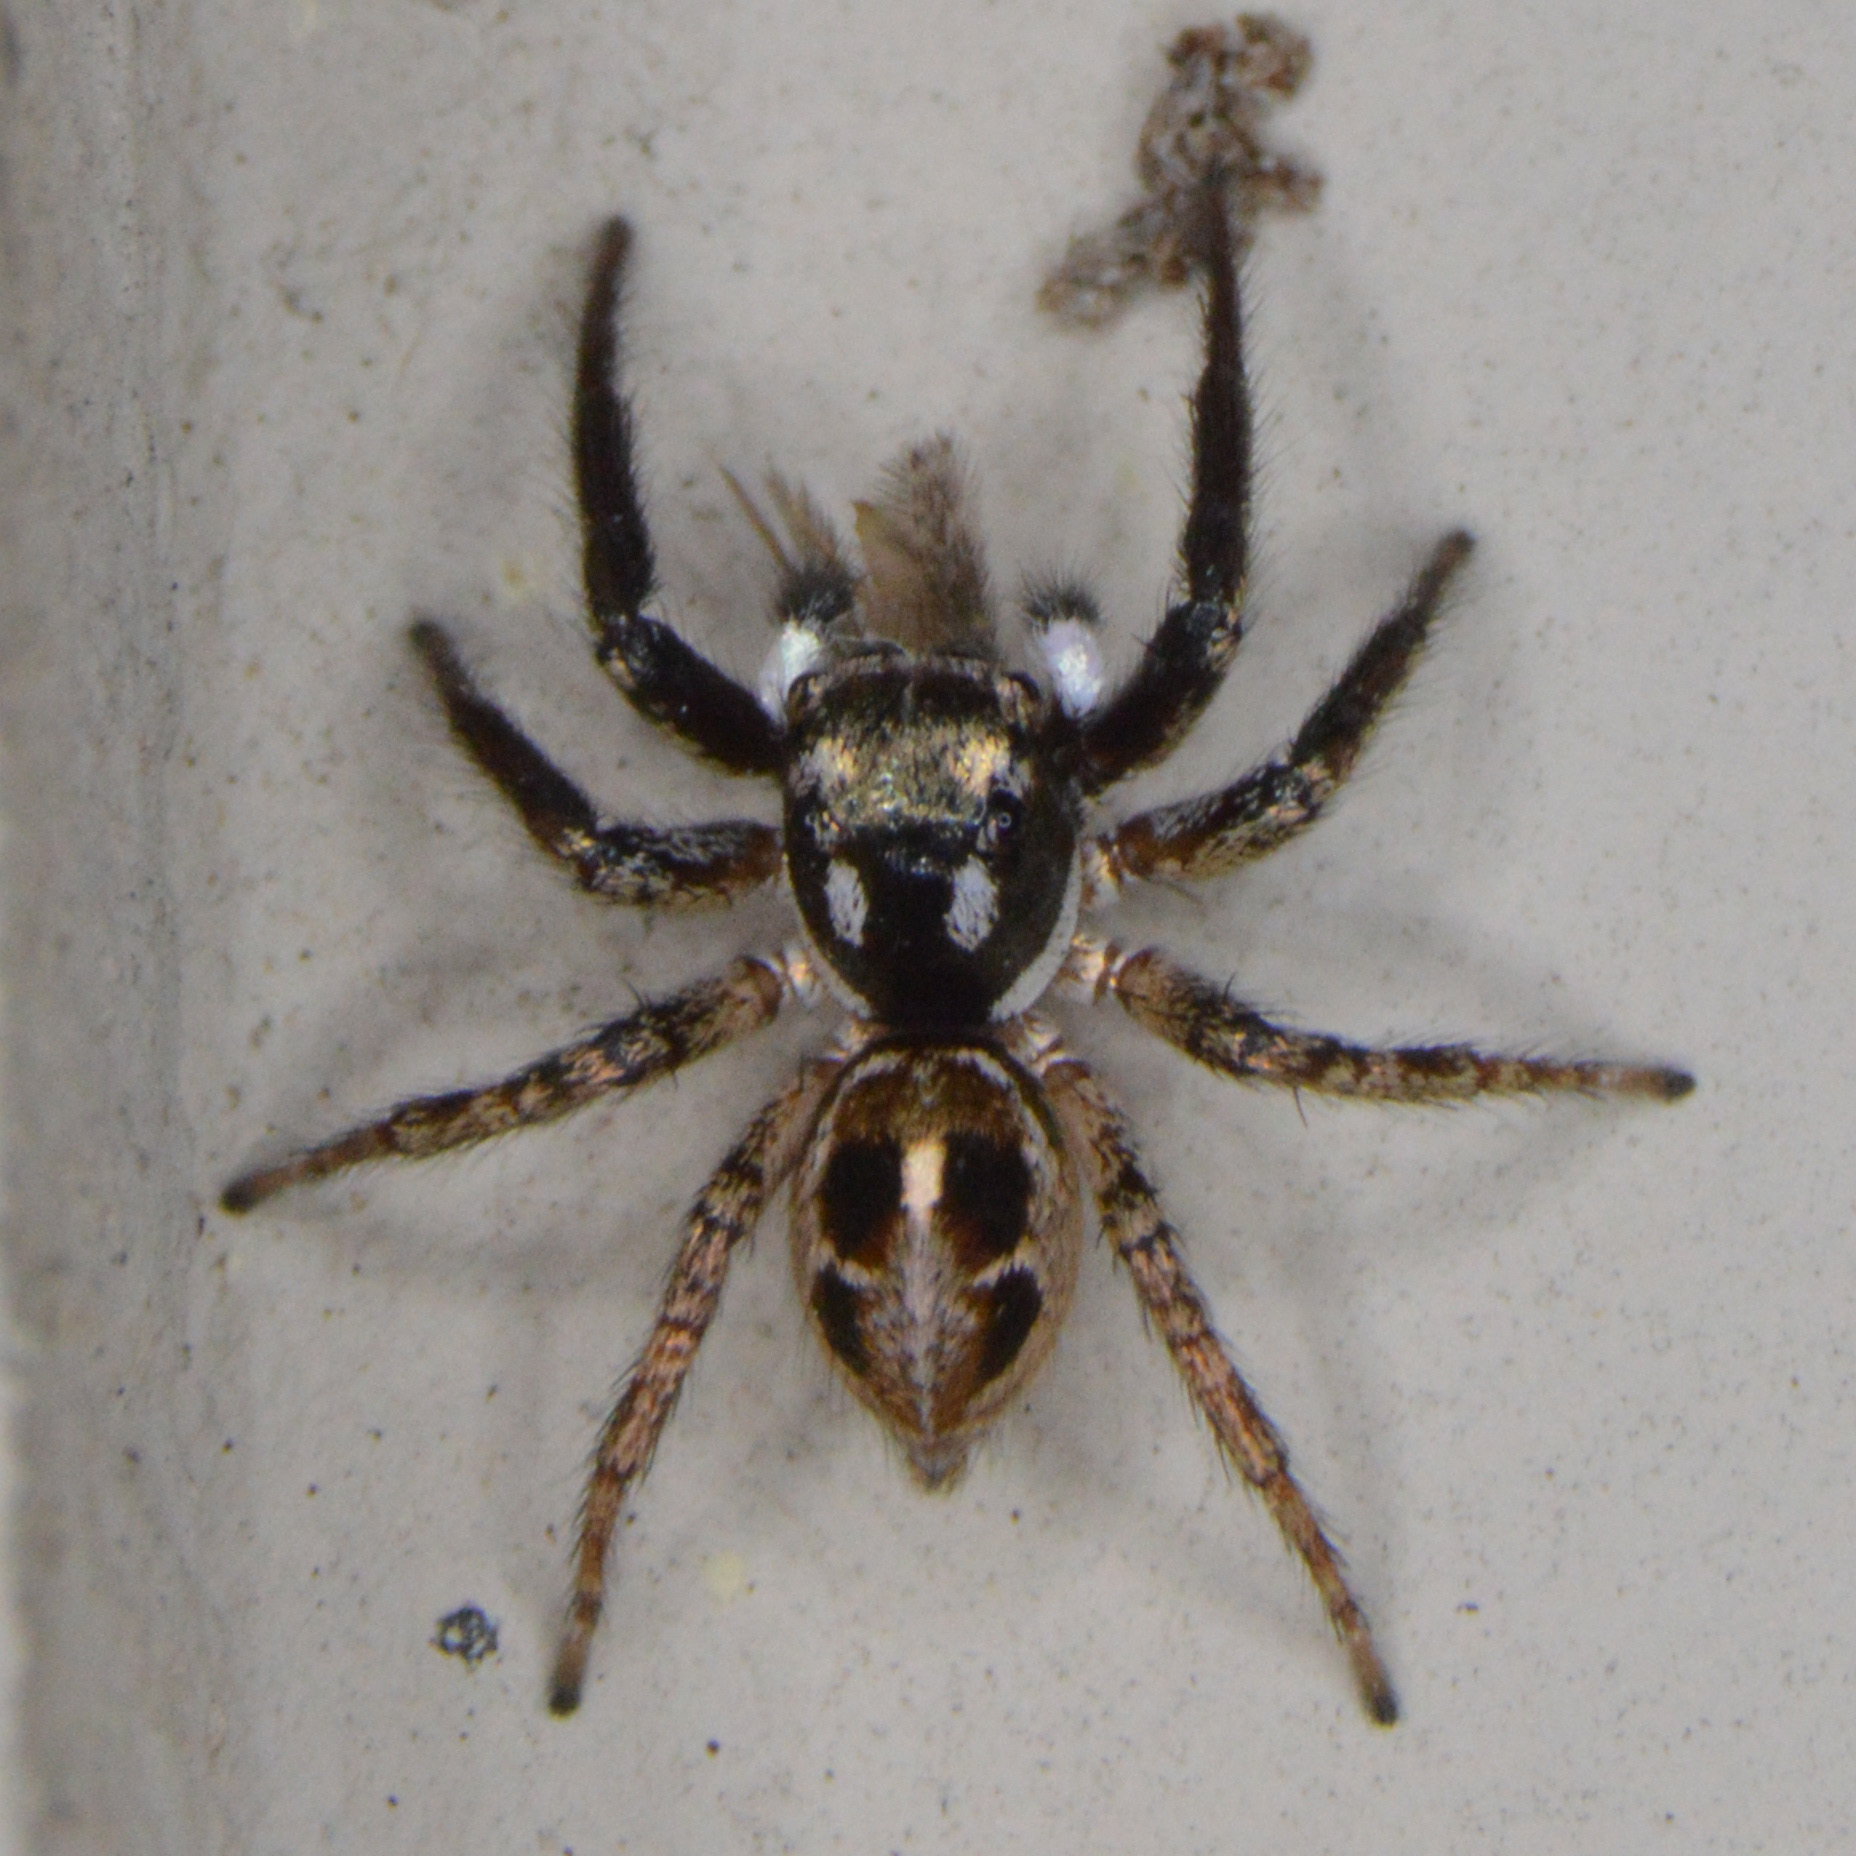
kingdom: Animalia
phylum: Arthropoda
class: Arachnida
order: Araneae
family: Salticidae
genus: Anasaitis
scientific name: Anasaitis canosa
